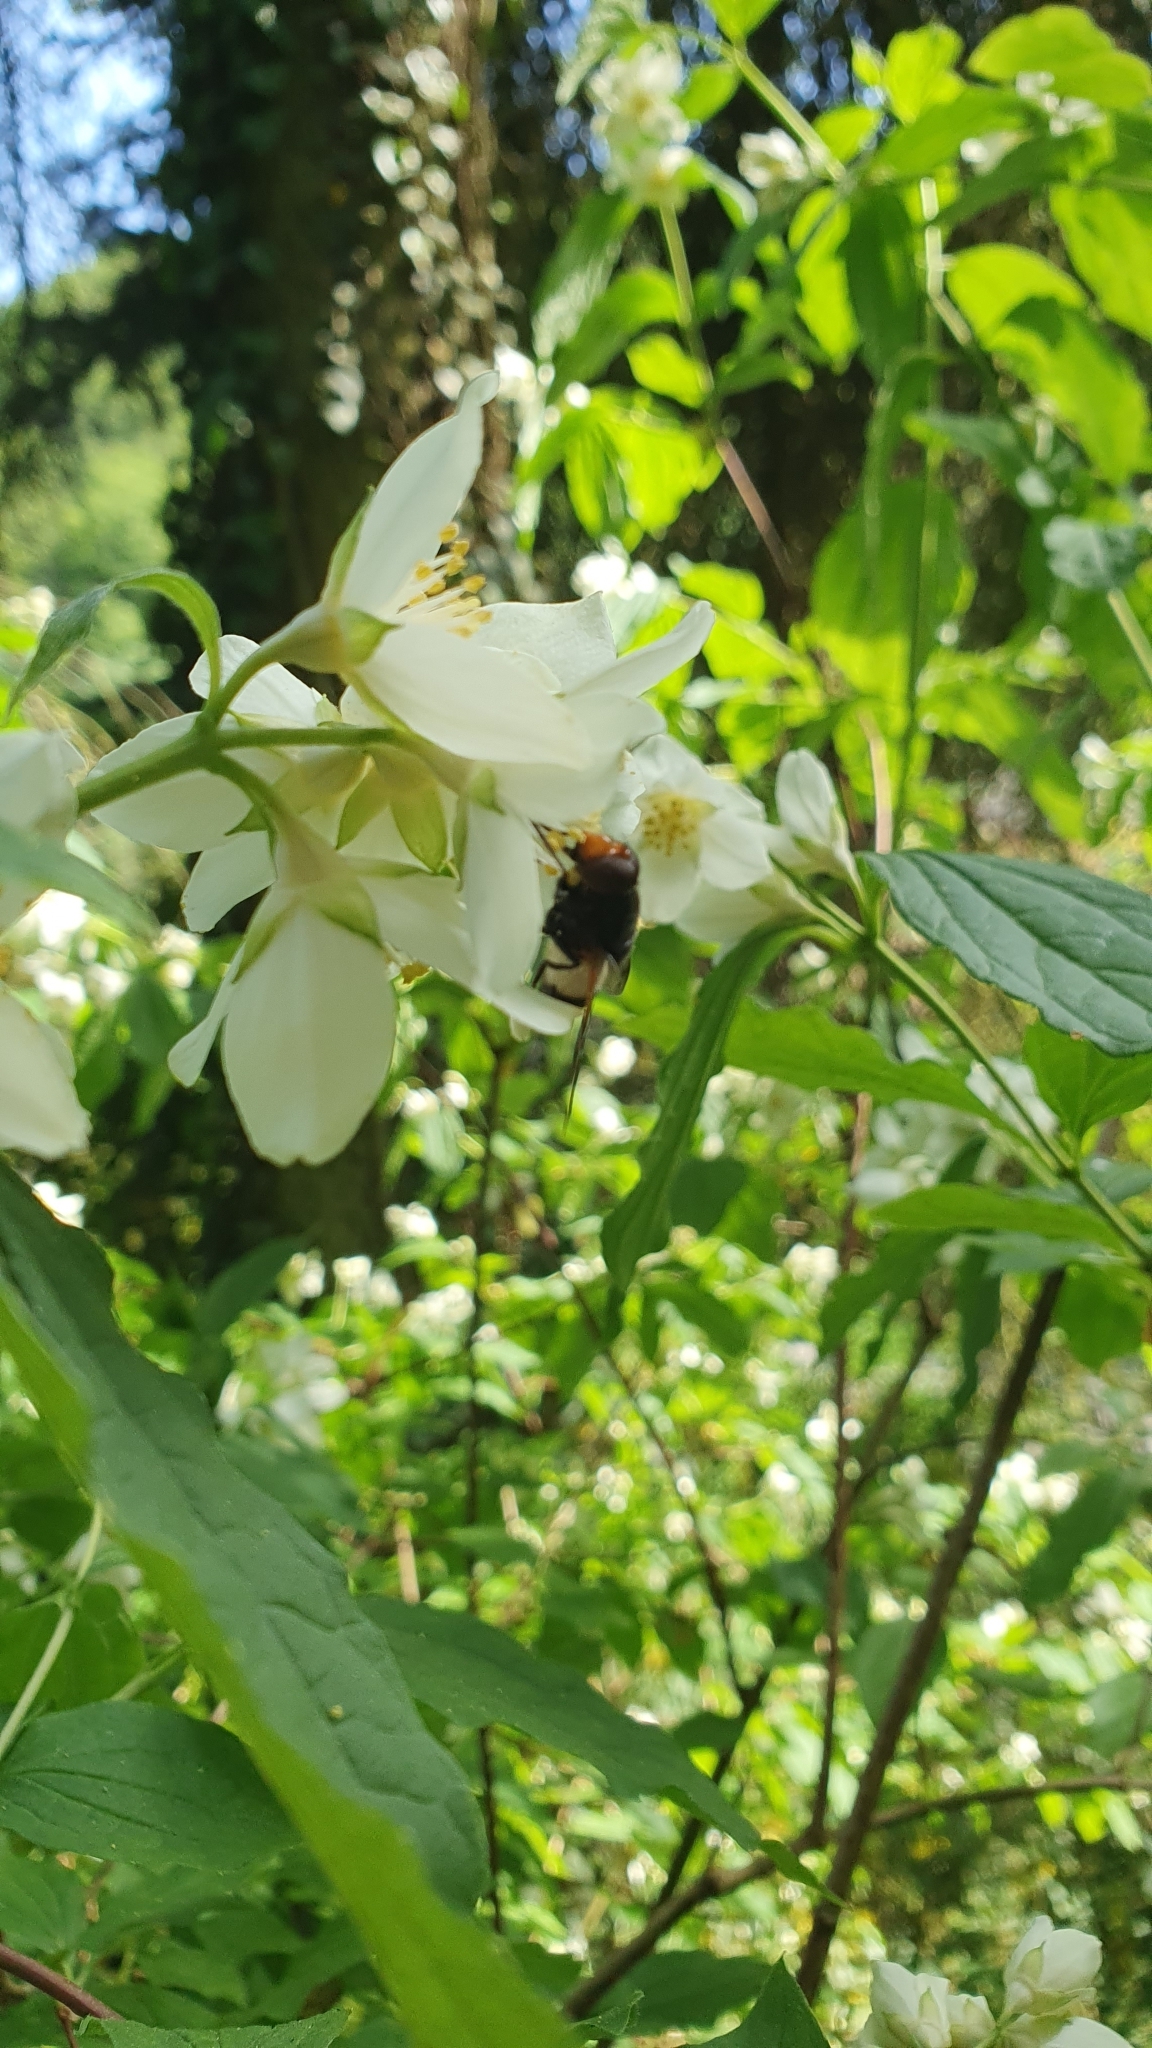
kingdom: Animalia
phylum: Arthropoda
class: Insecta
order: Diptera
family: Syrphidae
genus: Volucella
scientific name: Volucella pellucens
